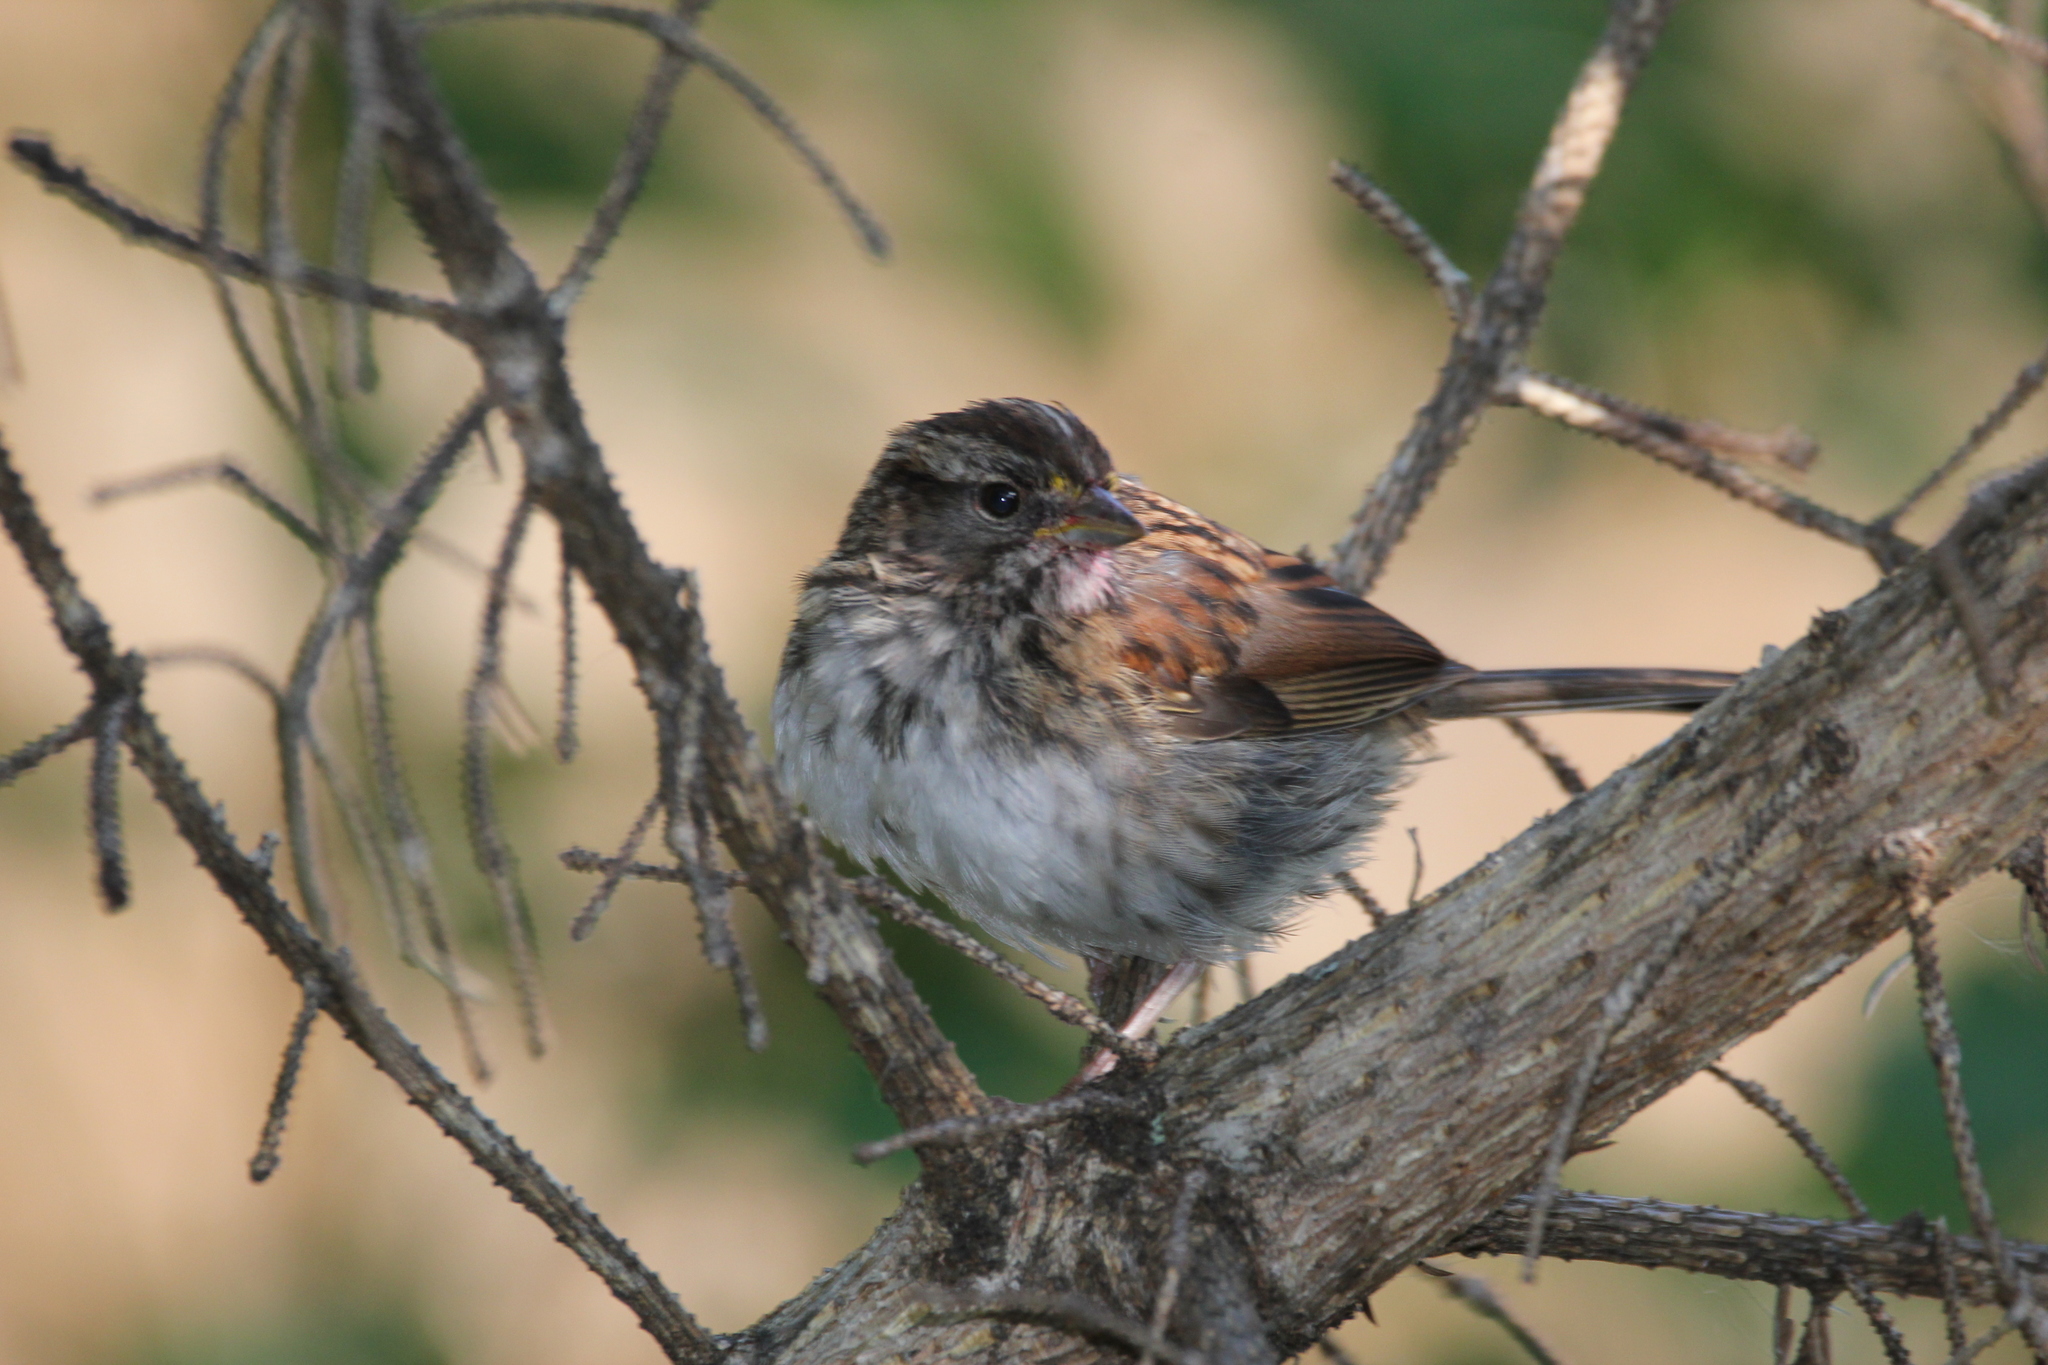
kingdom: Animalia
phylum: Chordata
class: Aves
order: Passeriformes
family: Passerellidae
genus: Zonotrichia
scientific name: Zonotrichia albicollis
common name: White-throated sparrow
